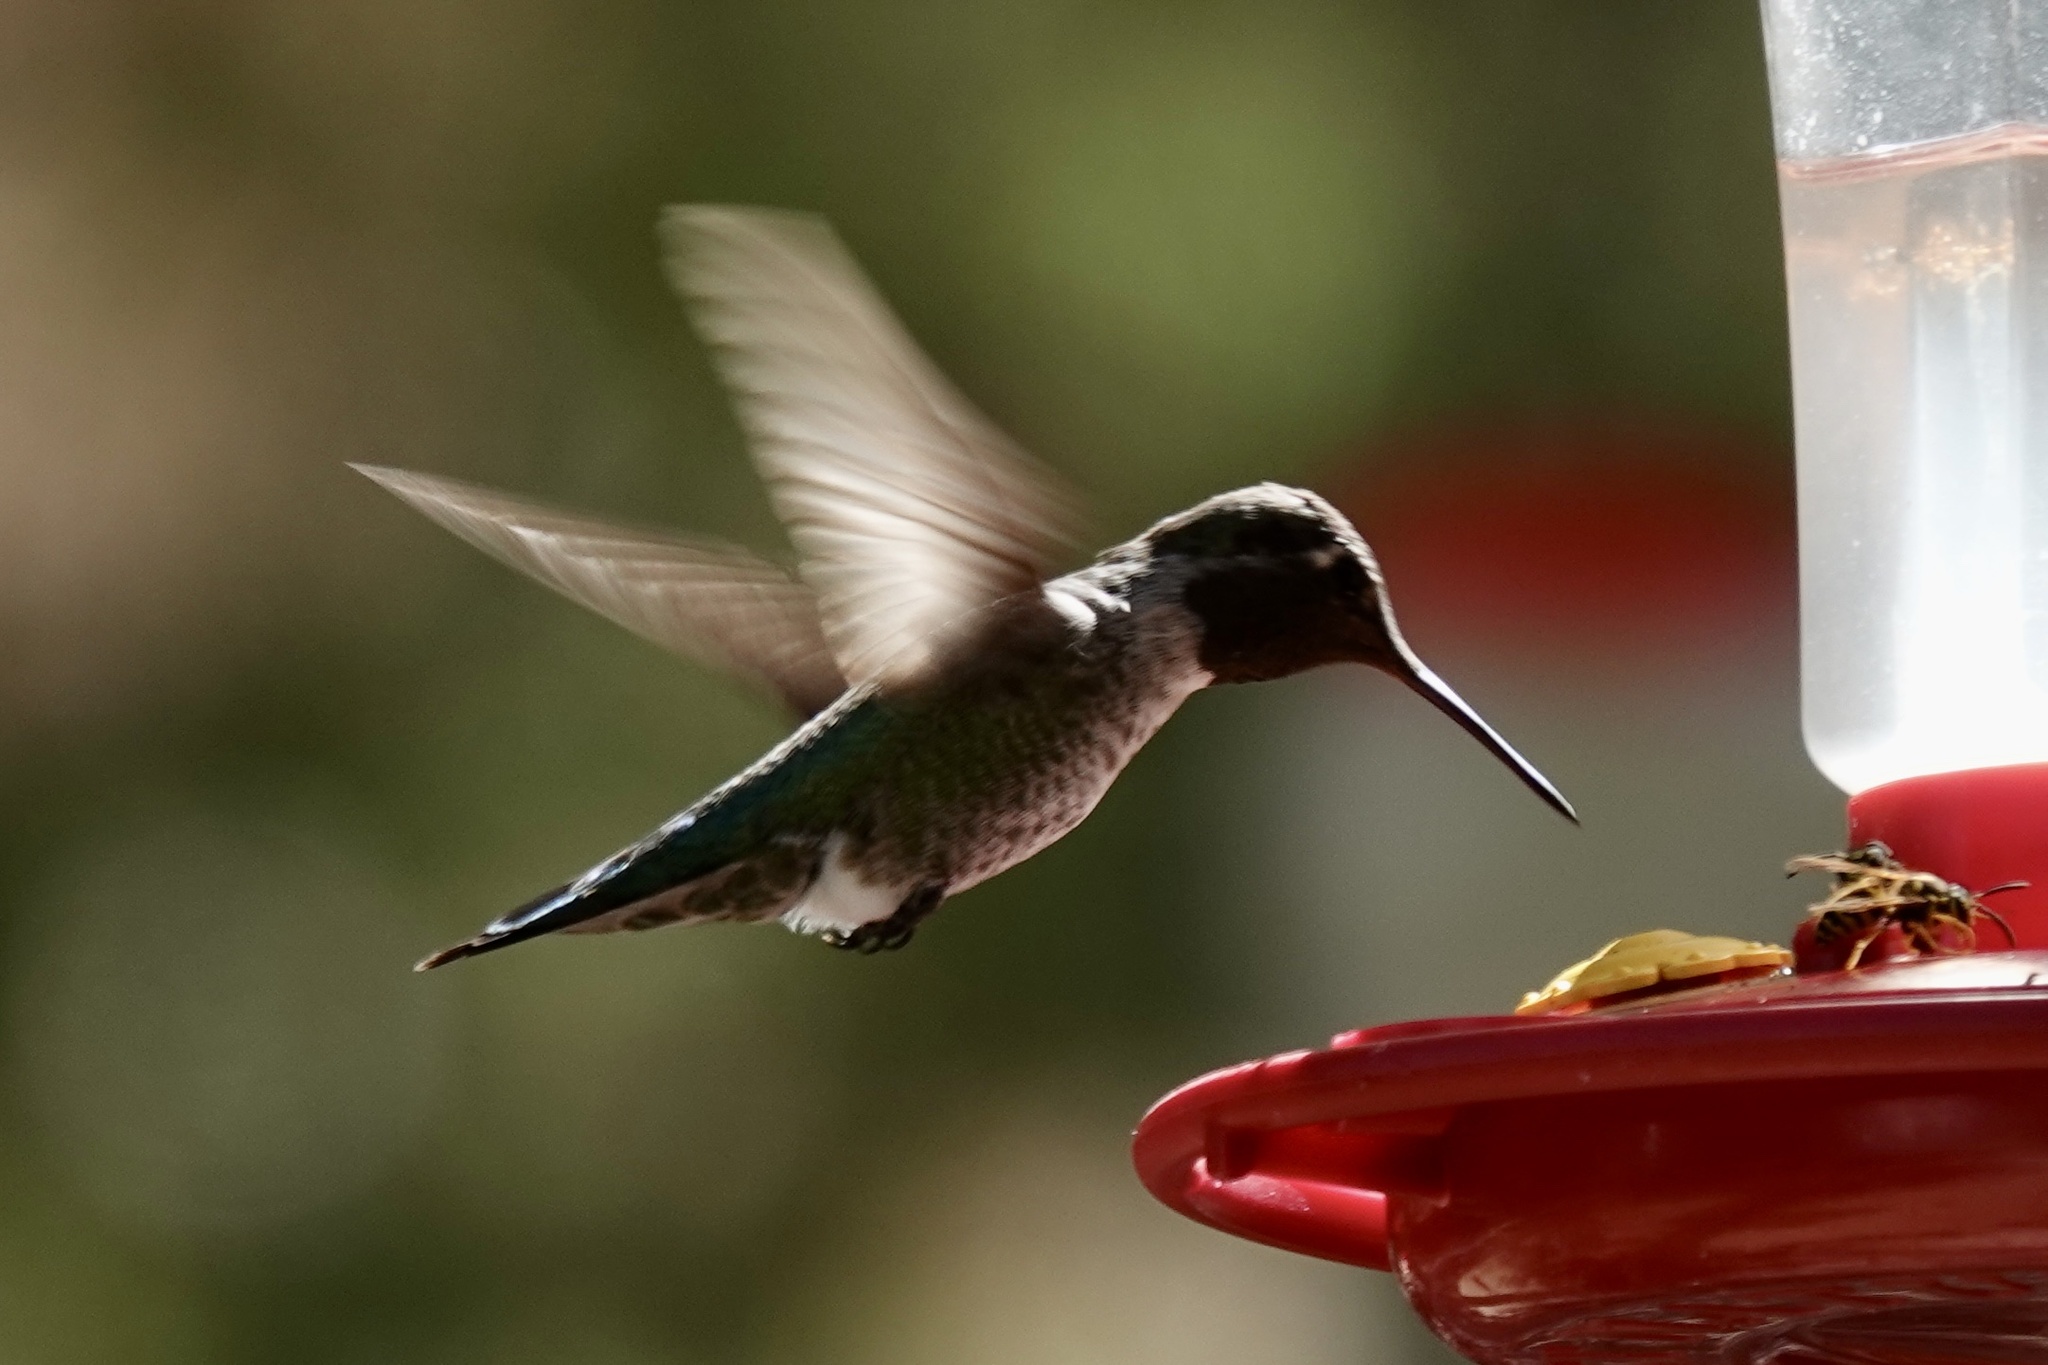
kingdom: Animalia
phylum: Chordata
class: Aves
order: Apodiformes
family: Trochilidae
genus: Calypte
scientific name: Calypte anna
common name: Anna's hummingbird
